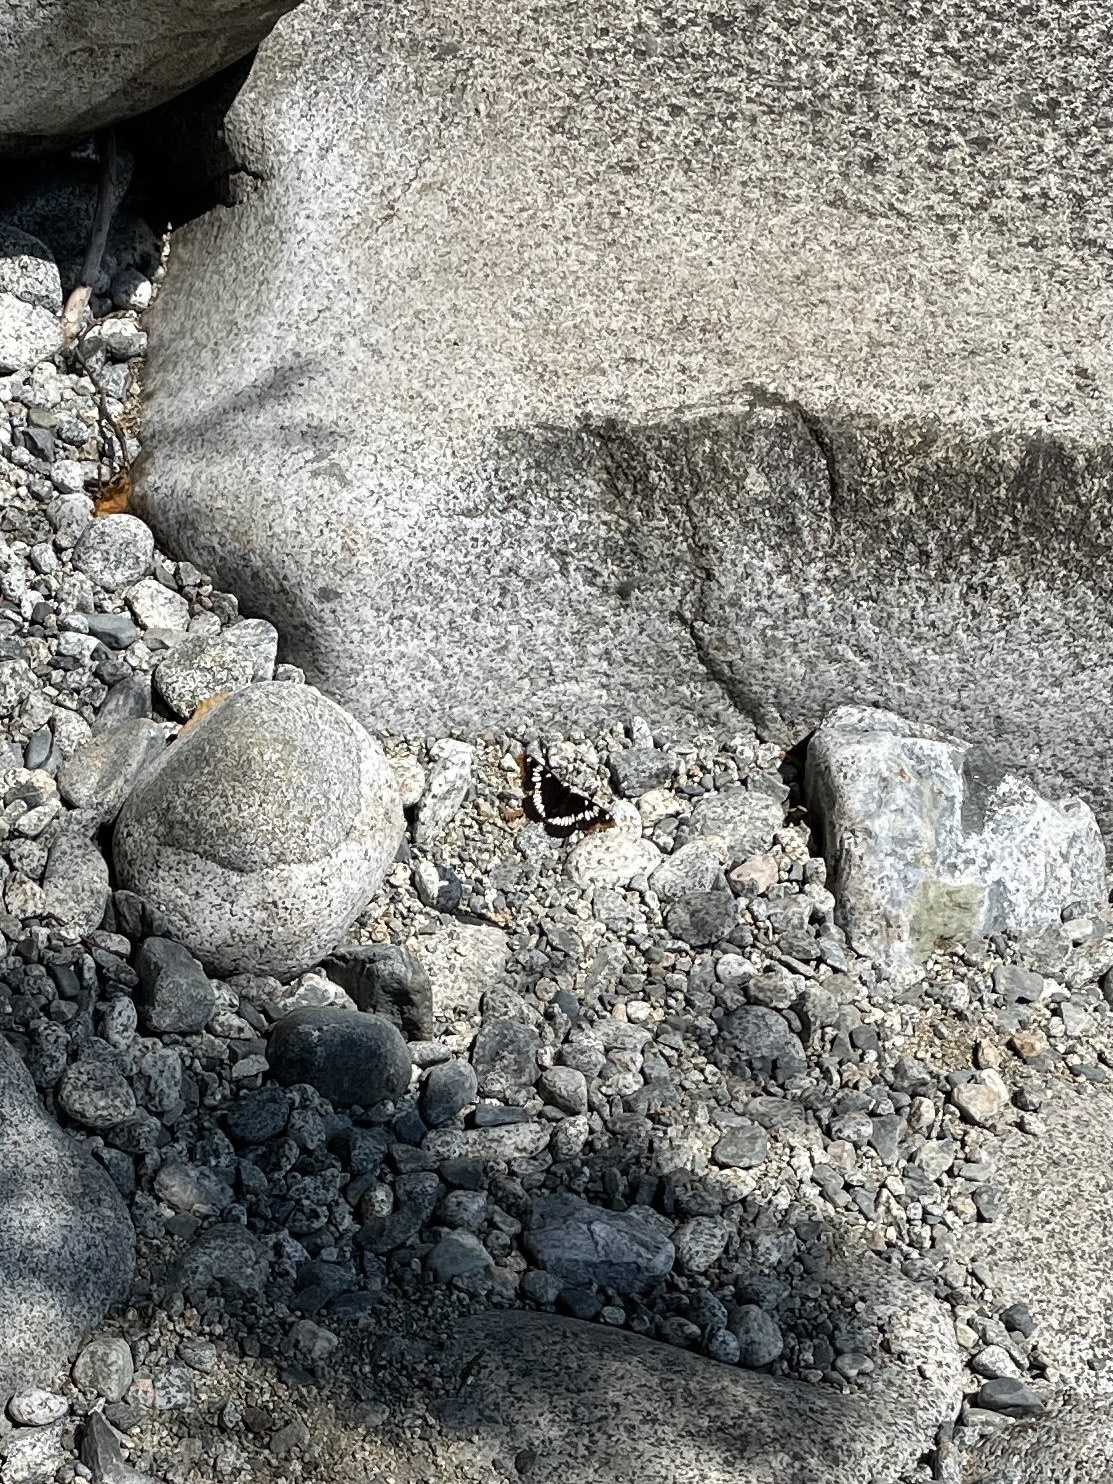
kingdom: Animalia
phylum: Arthropoda
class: Insecta
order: Lepidoptera
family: Nymphalidae
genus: Limenitis
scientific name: Limenitis lorquini
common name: Lorquin's admiral
